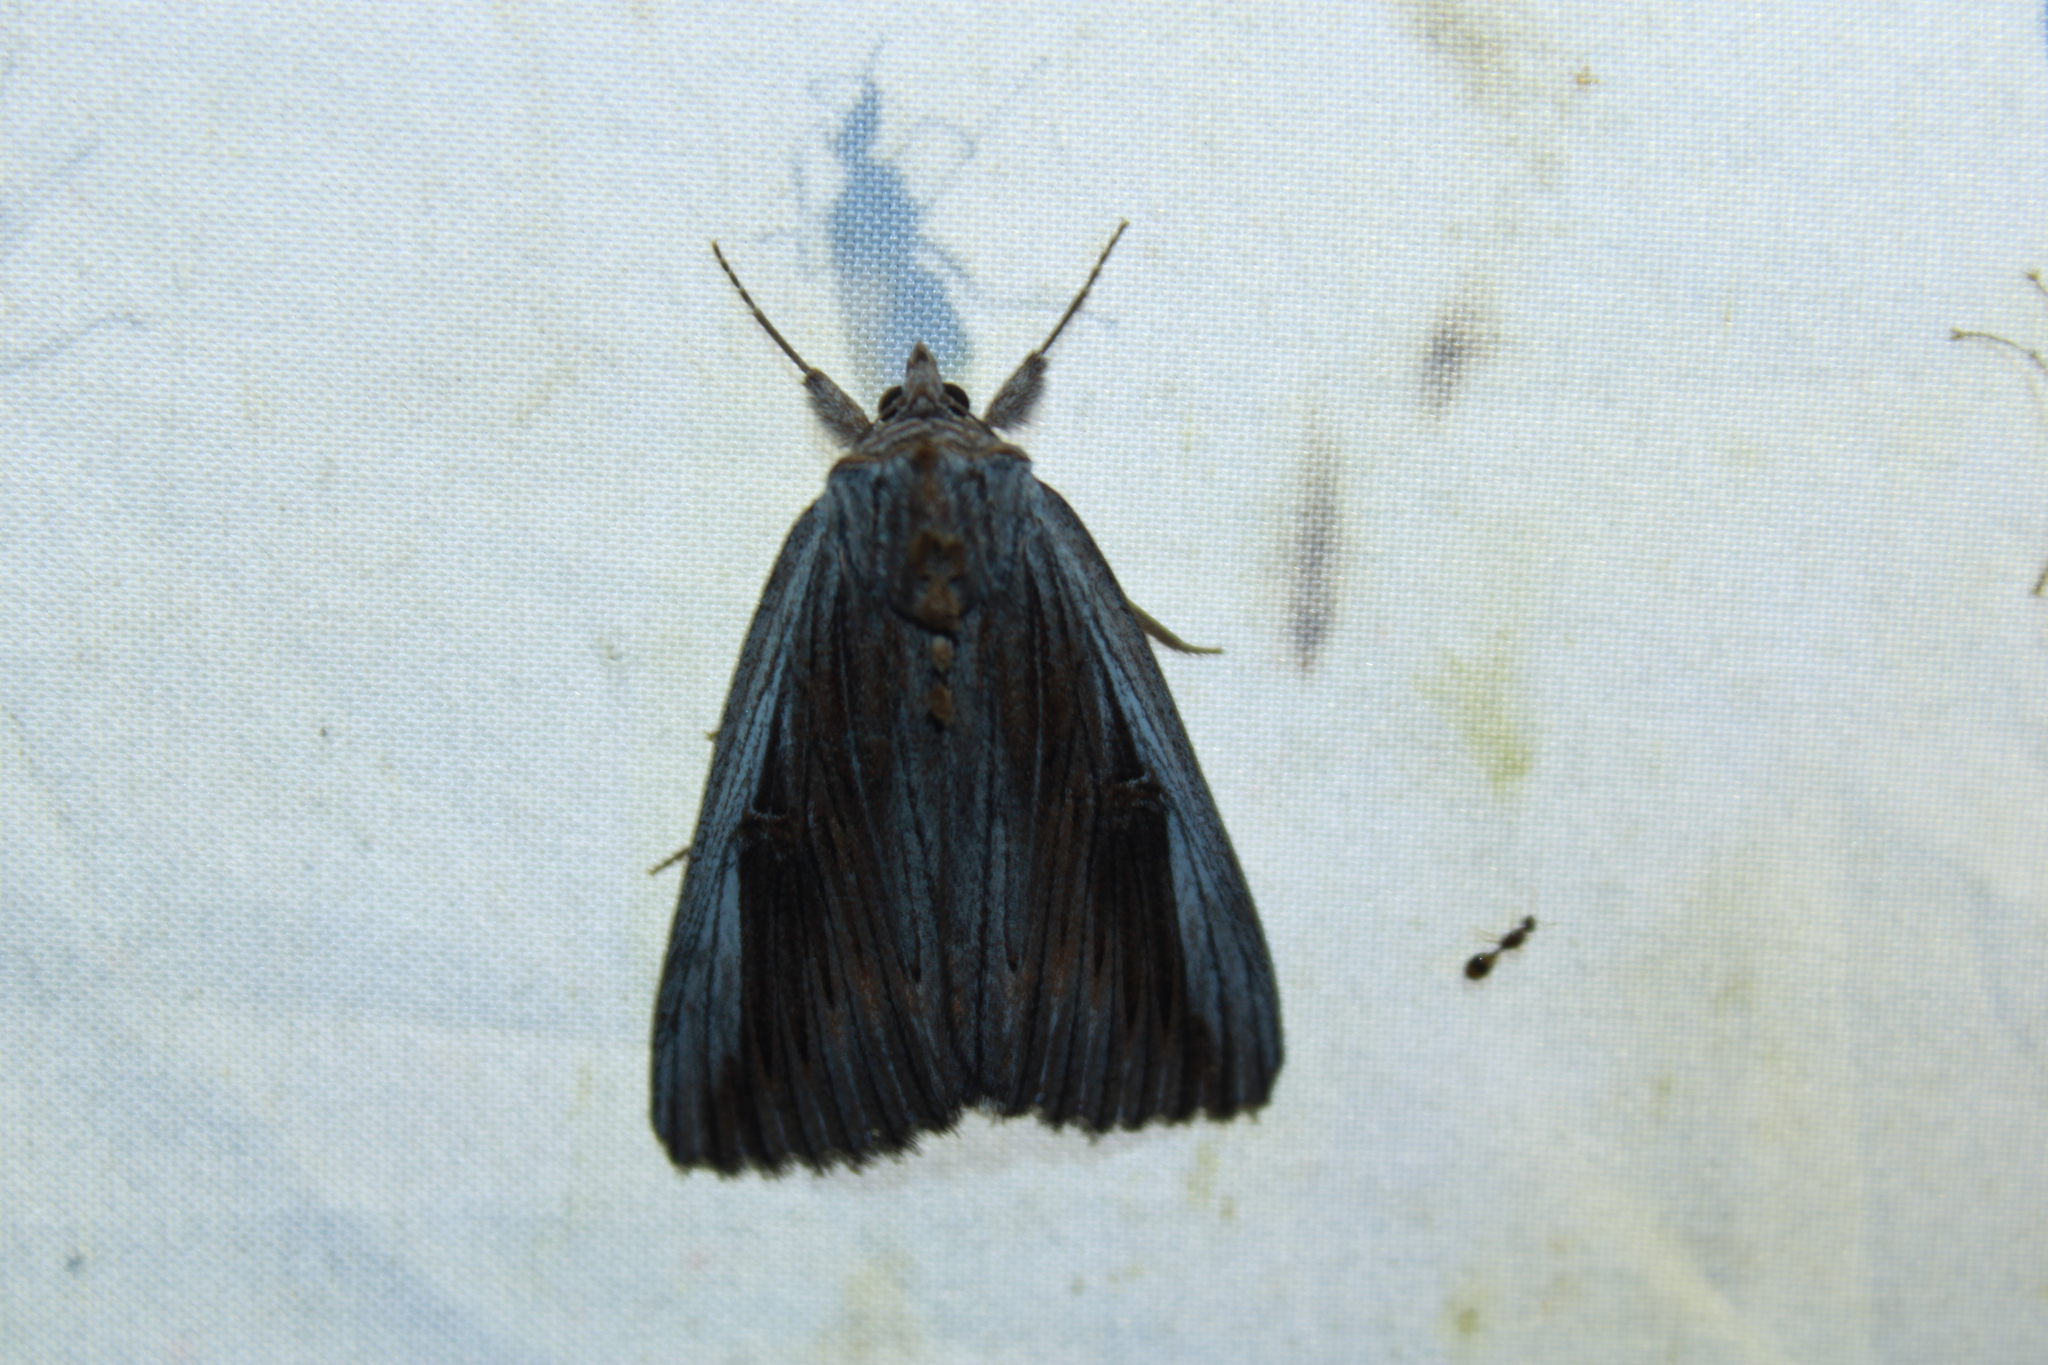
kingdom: Animalia
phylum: Arthropoda
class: Insecta
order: Lepidoptera
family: Erebidae
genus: Catocala
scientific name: Catocala herodias
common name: Pine barrens underwing
